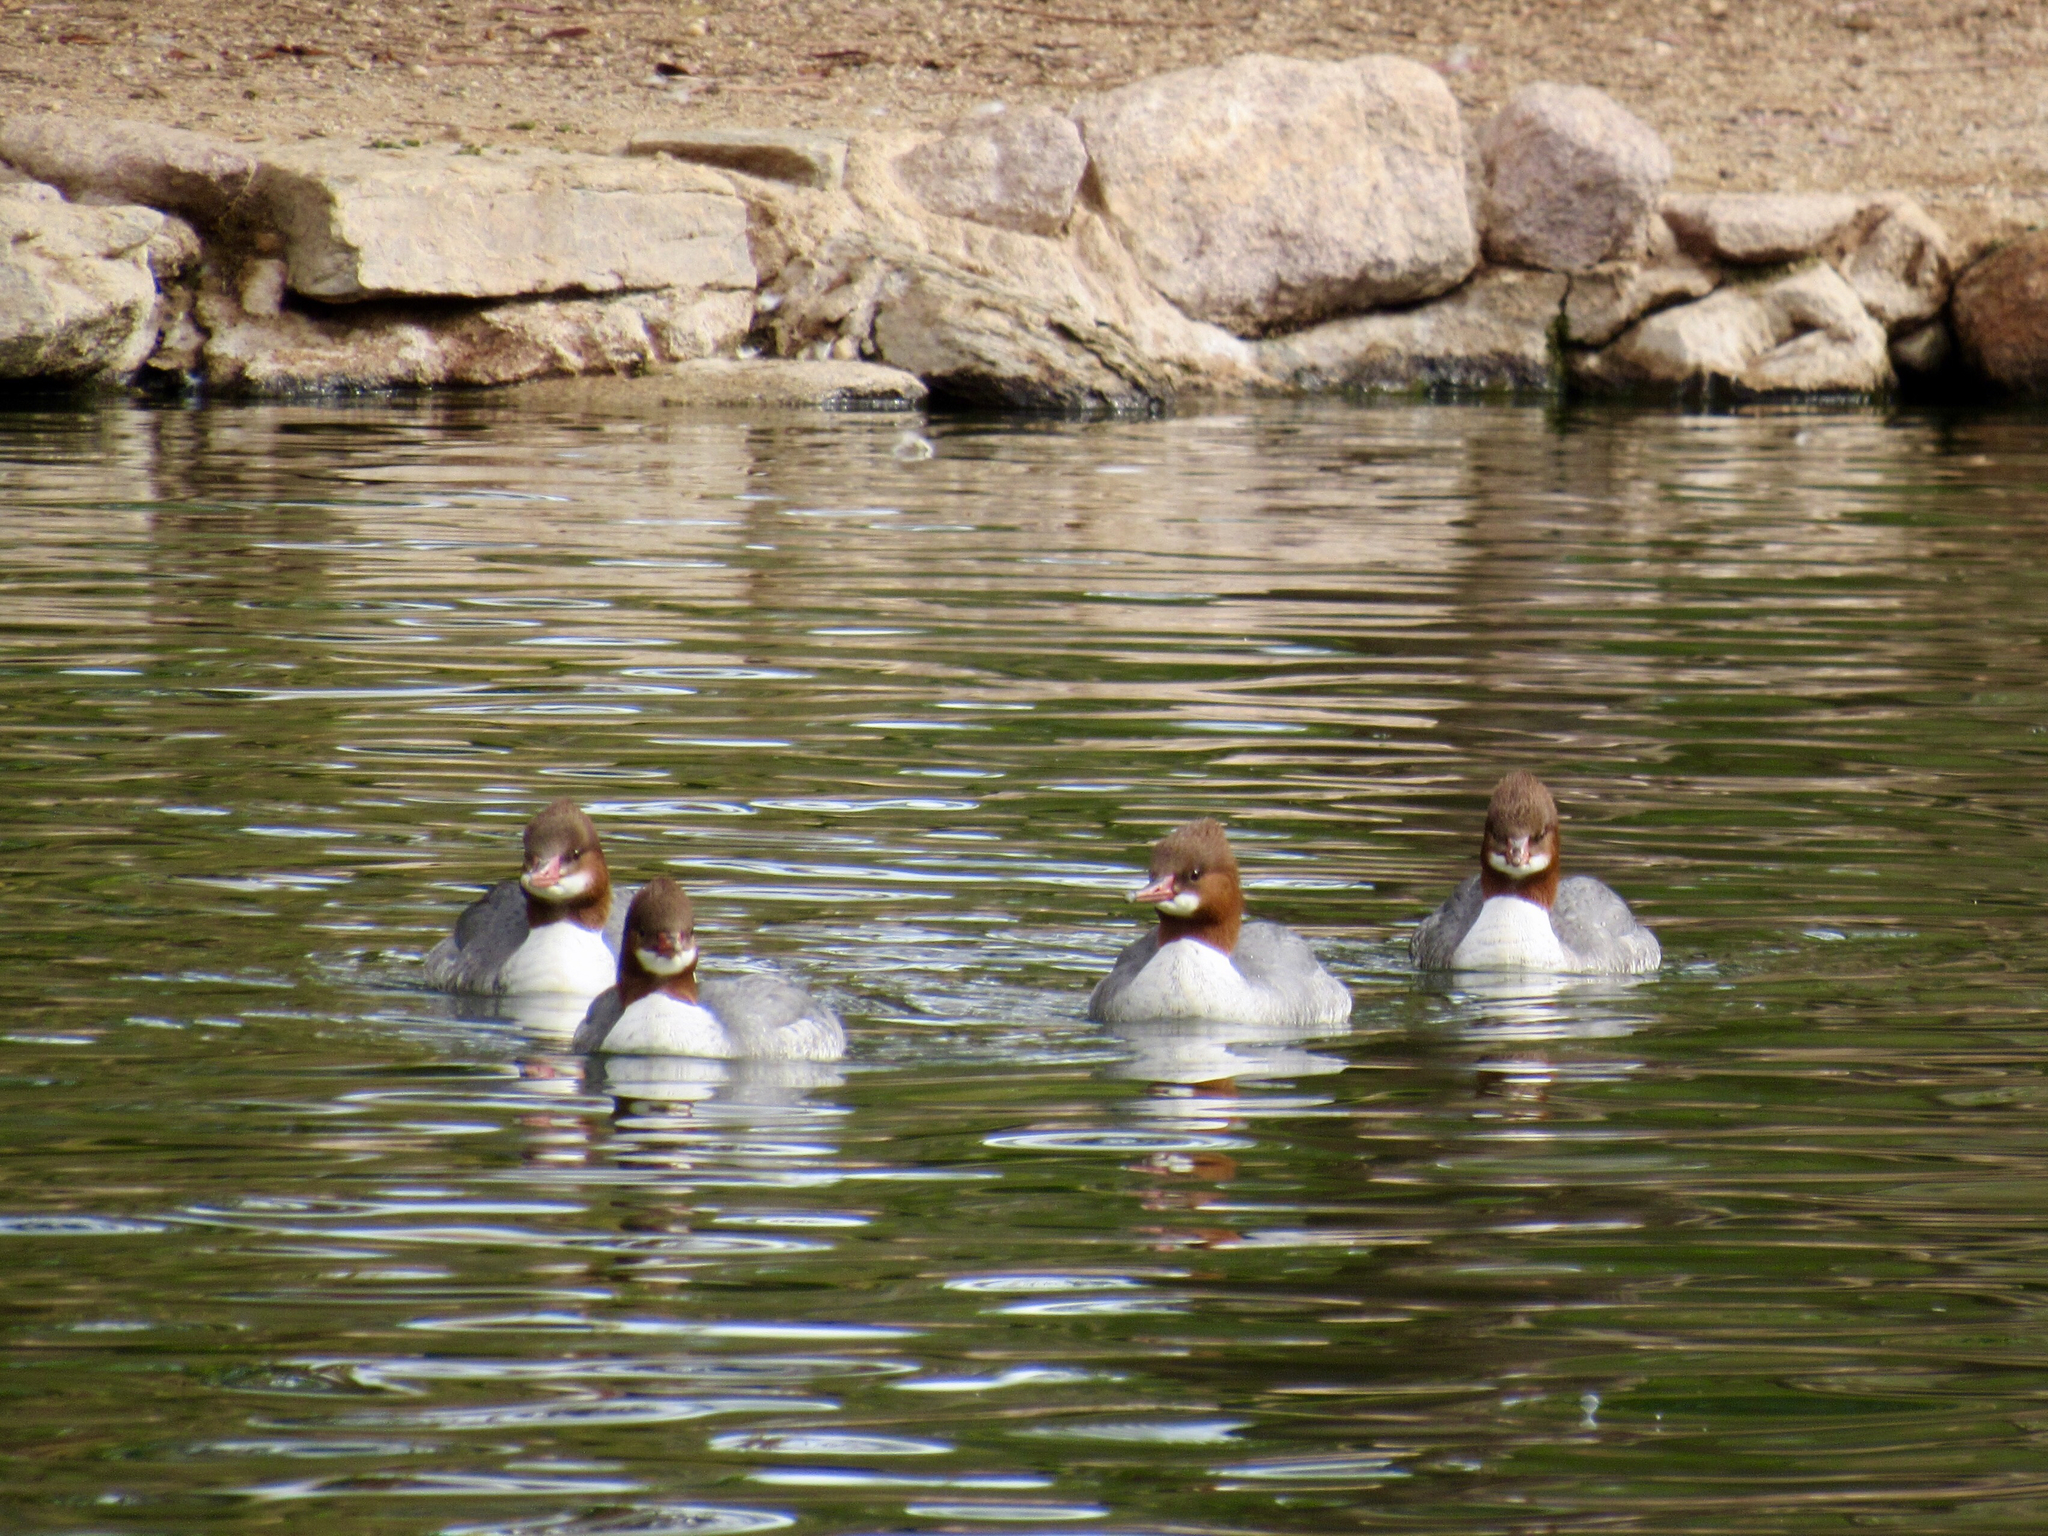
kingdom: Animalia
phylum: Chordata
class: Aves
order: Anseriformes
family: Anatidae
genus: Mergus
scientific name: Mergus merganser
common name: Common merganser
